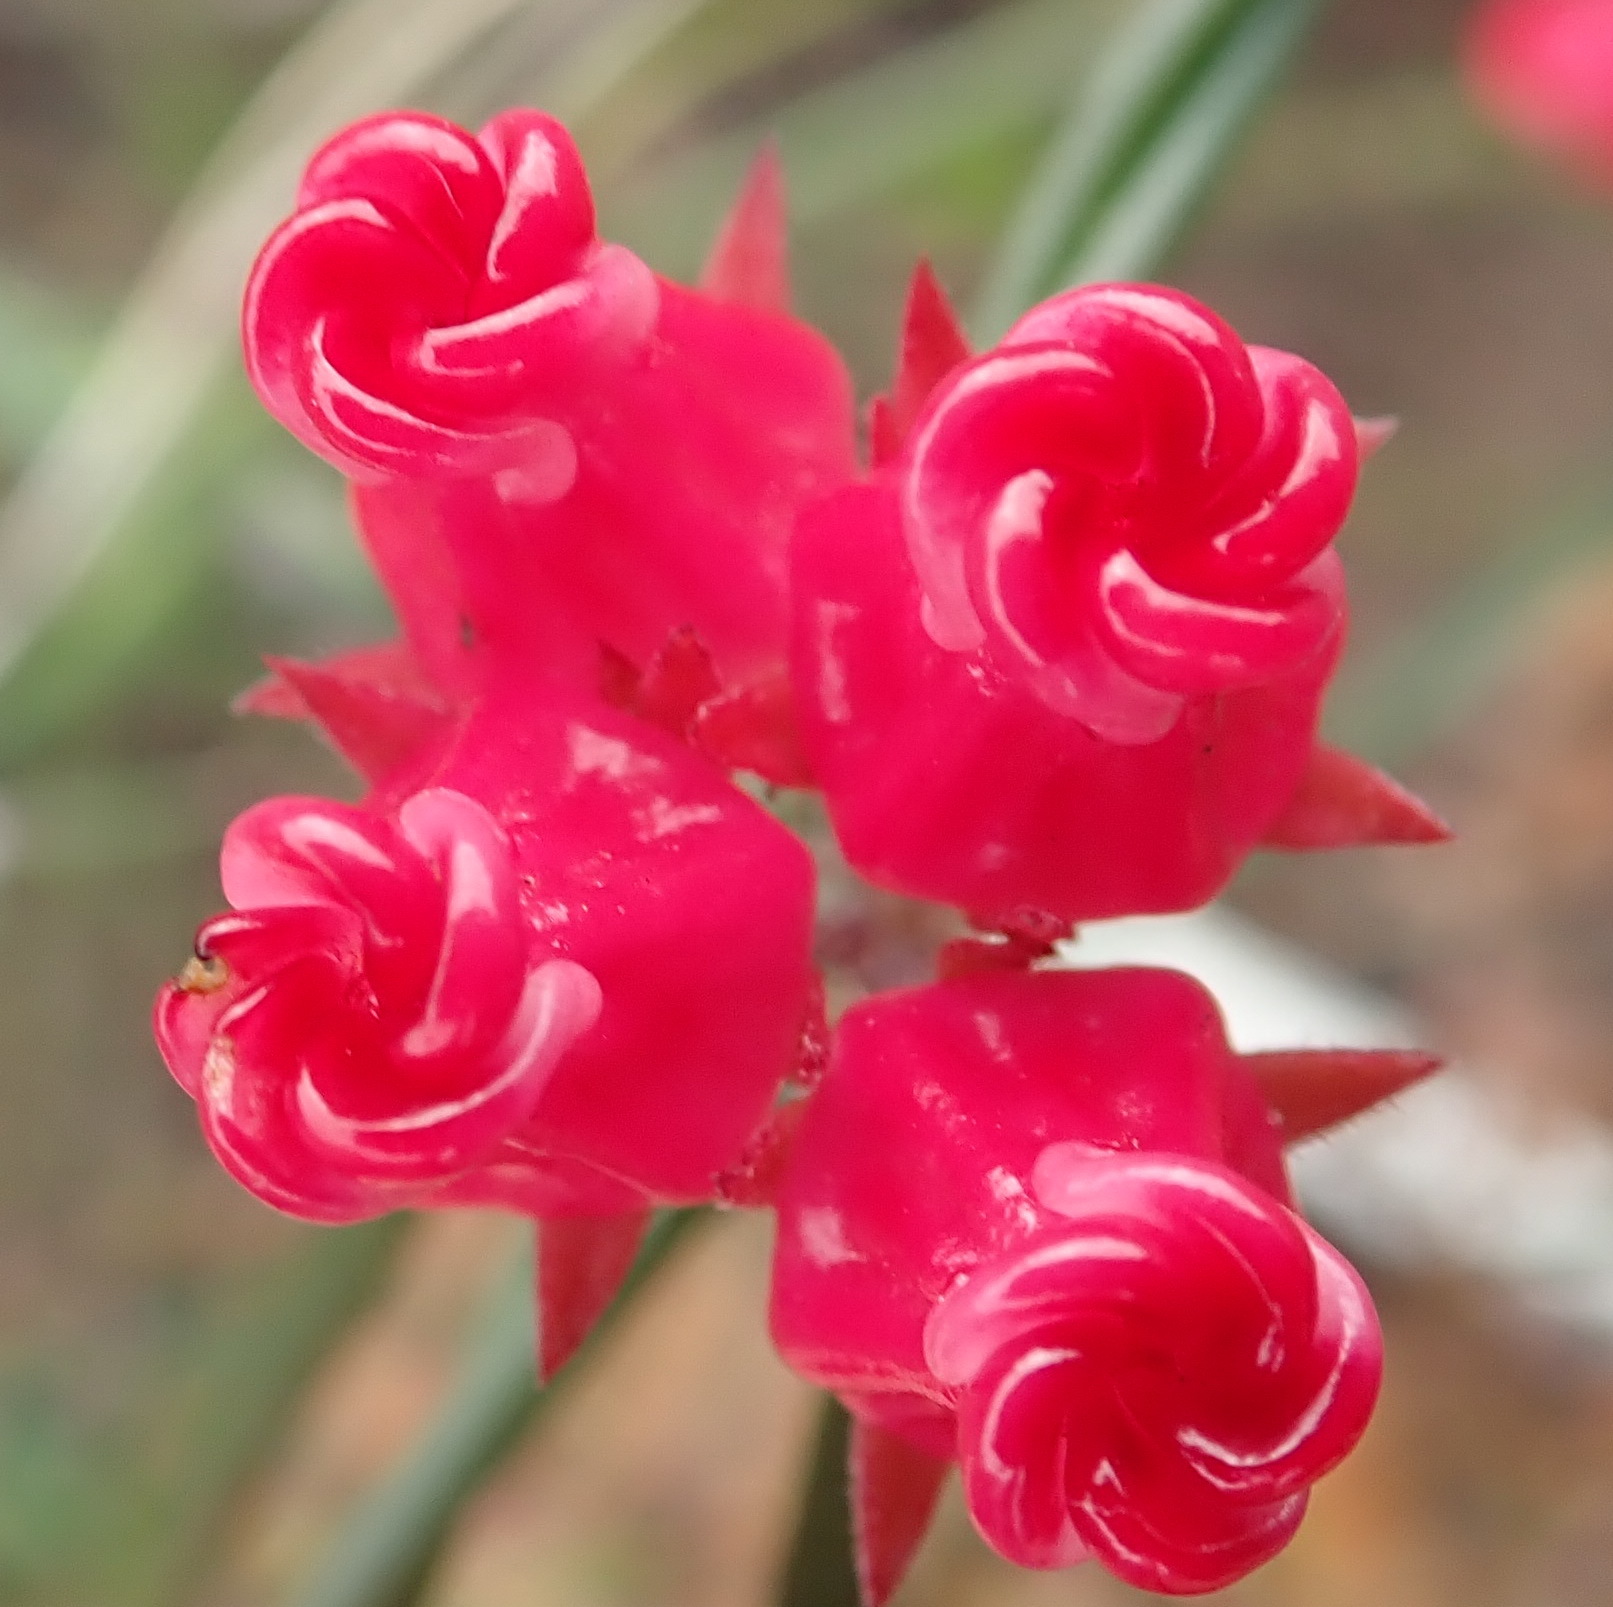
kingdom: Plantae
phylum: Tracheophyta
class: Magnoliopsida
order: Gentianales
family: Apocynaceae
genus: Microloma
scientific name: Microloma tenuifolium
